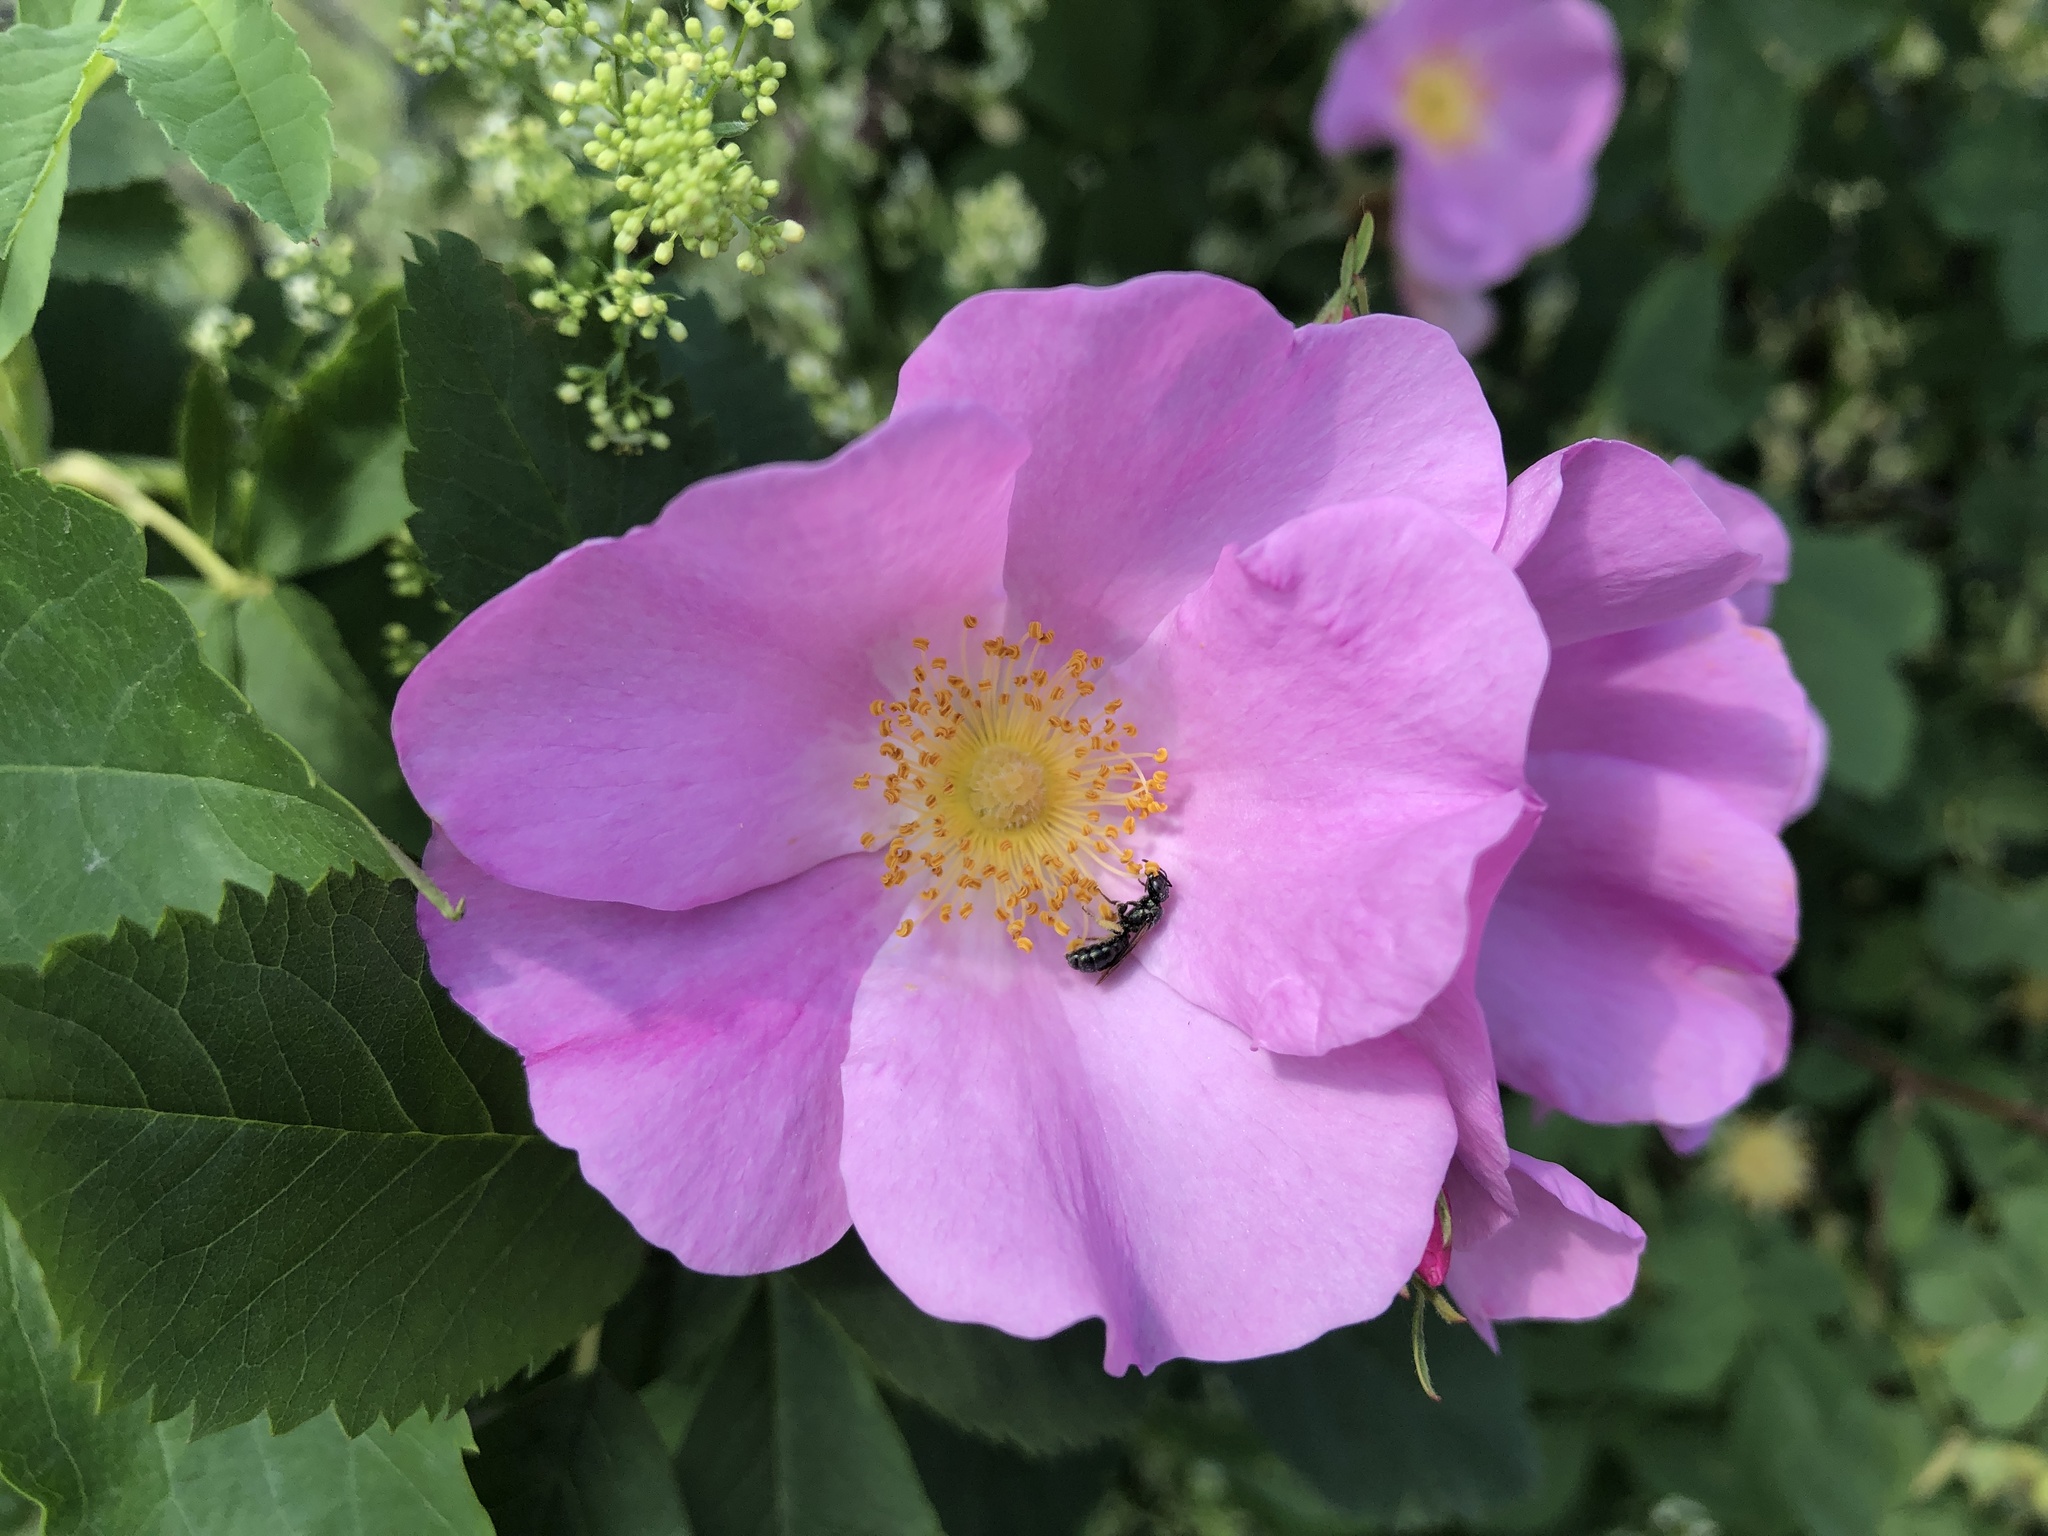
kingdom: Plantae
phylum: Tracheophyta
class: Magnoliopsida
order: Rosales
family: Rosaceae
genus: Rosa
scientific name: Rosa blanda
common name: Smooth rose
